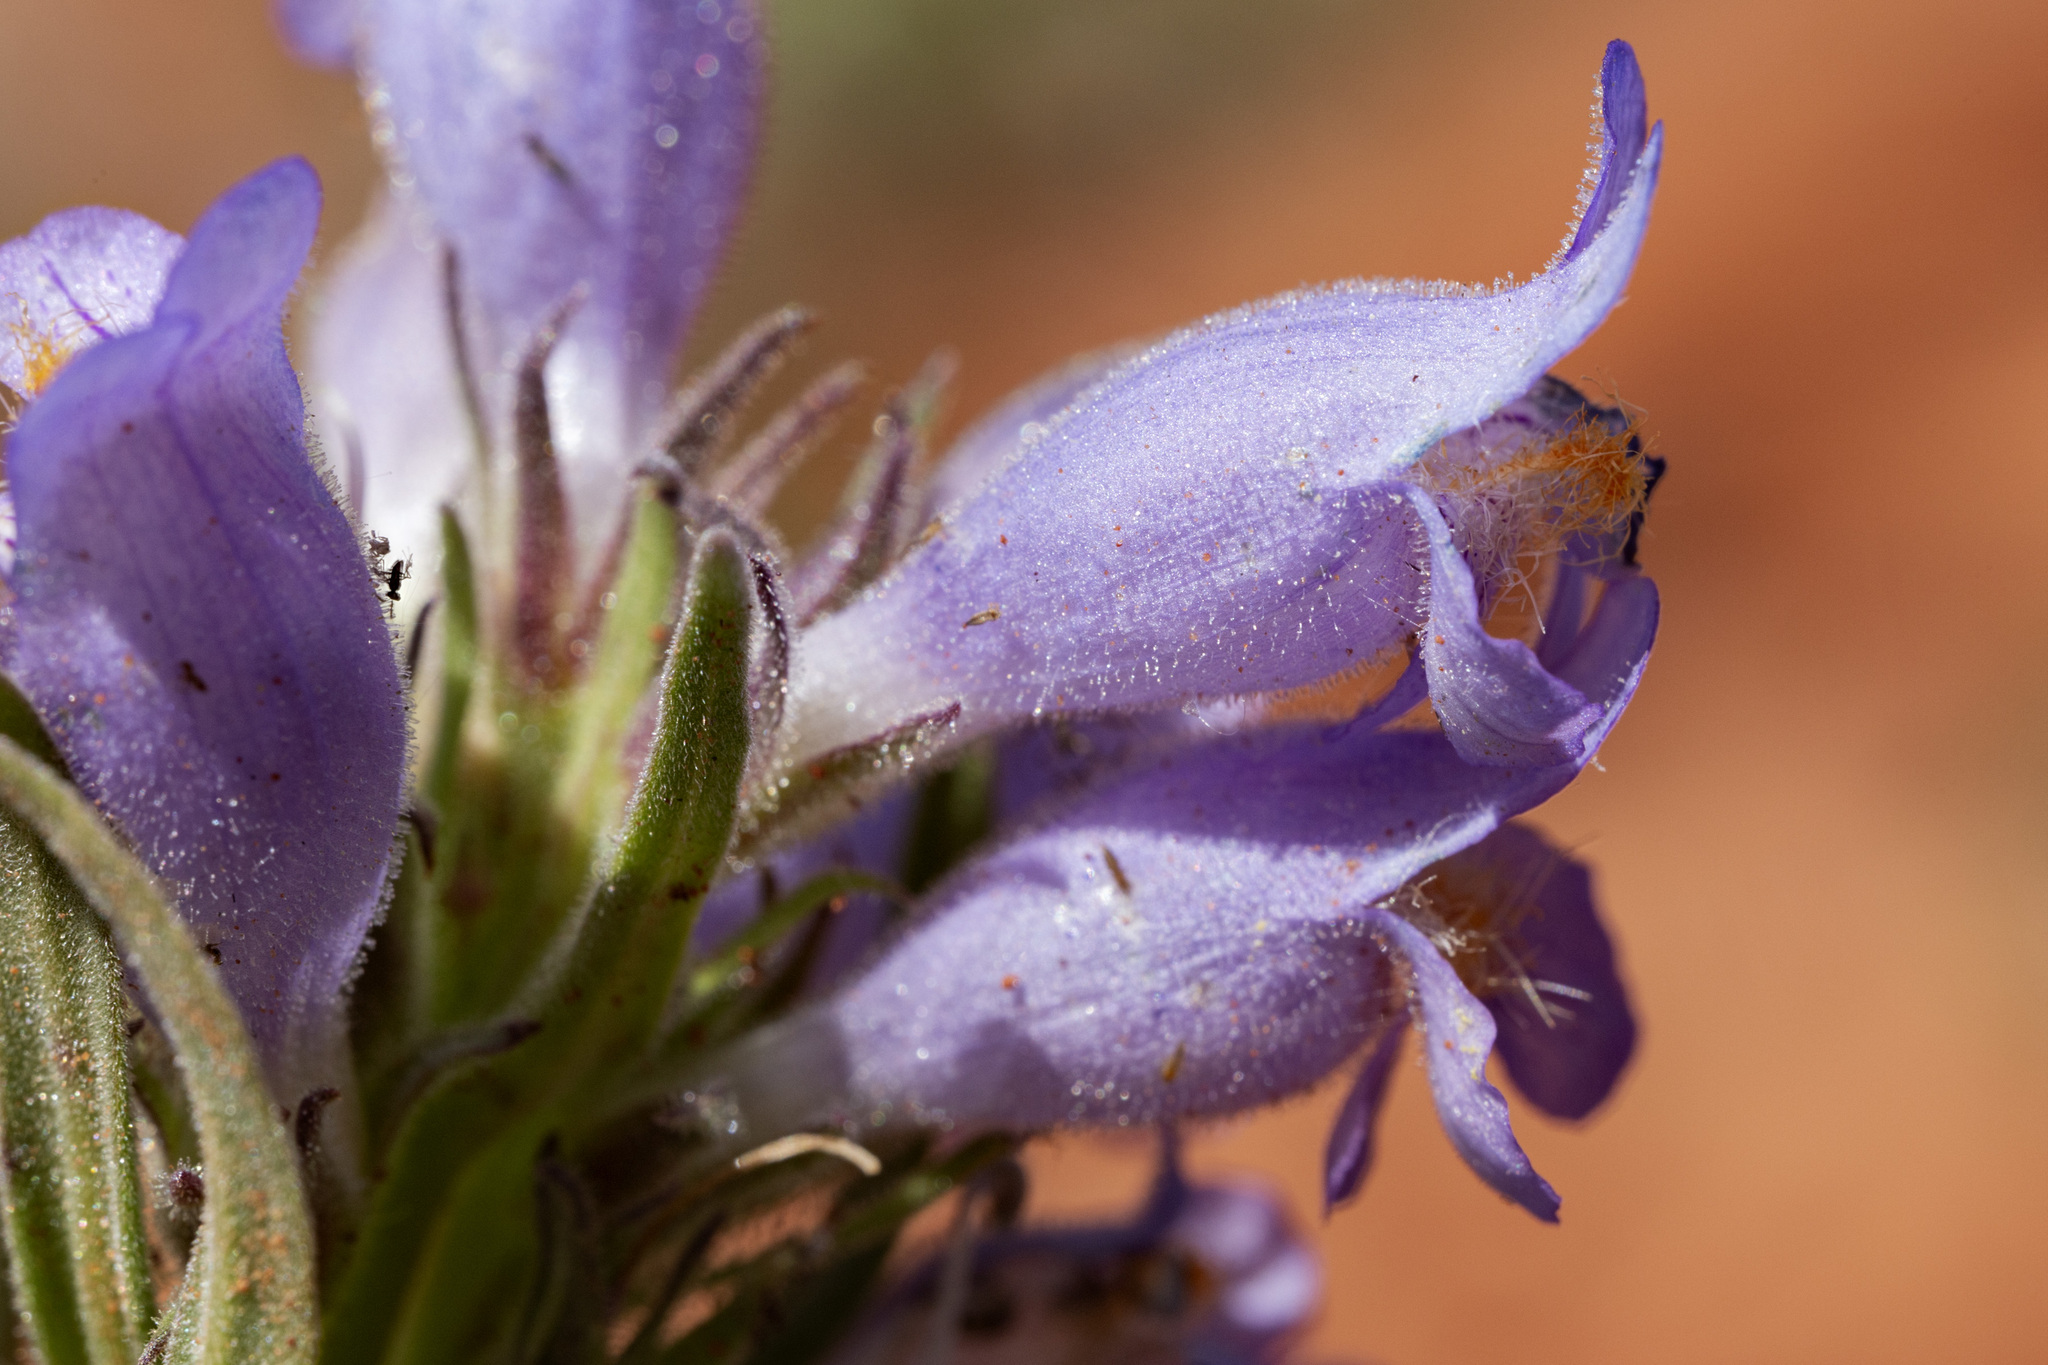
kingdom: Plantae
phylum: Tracheophyta
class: Magnoliopsida
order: Lamiales
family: Plantaginaceae
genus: Penstemon
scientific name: Penstemon eriantherus
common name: Crested beardtongue
